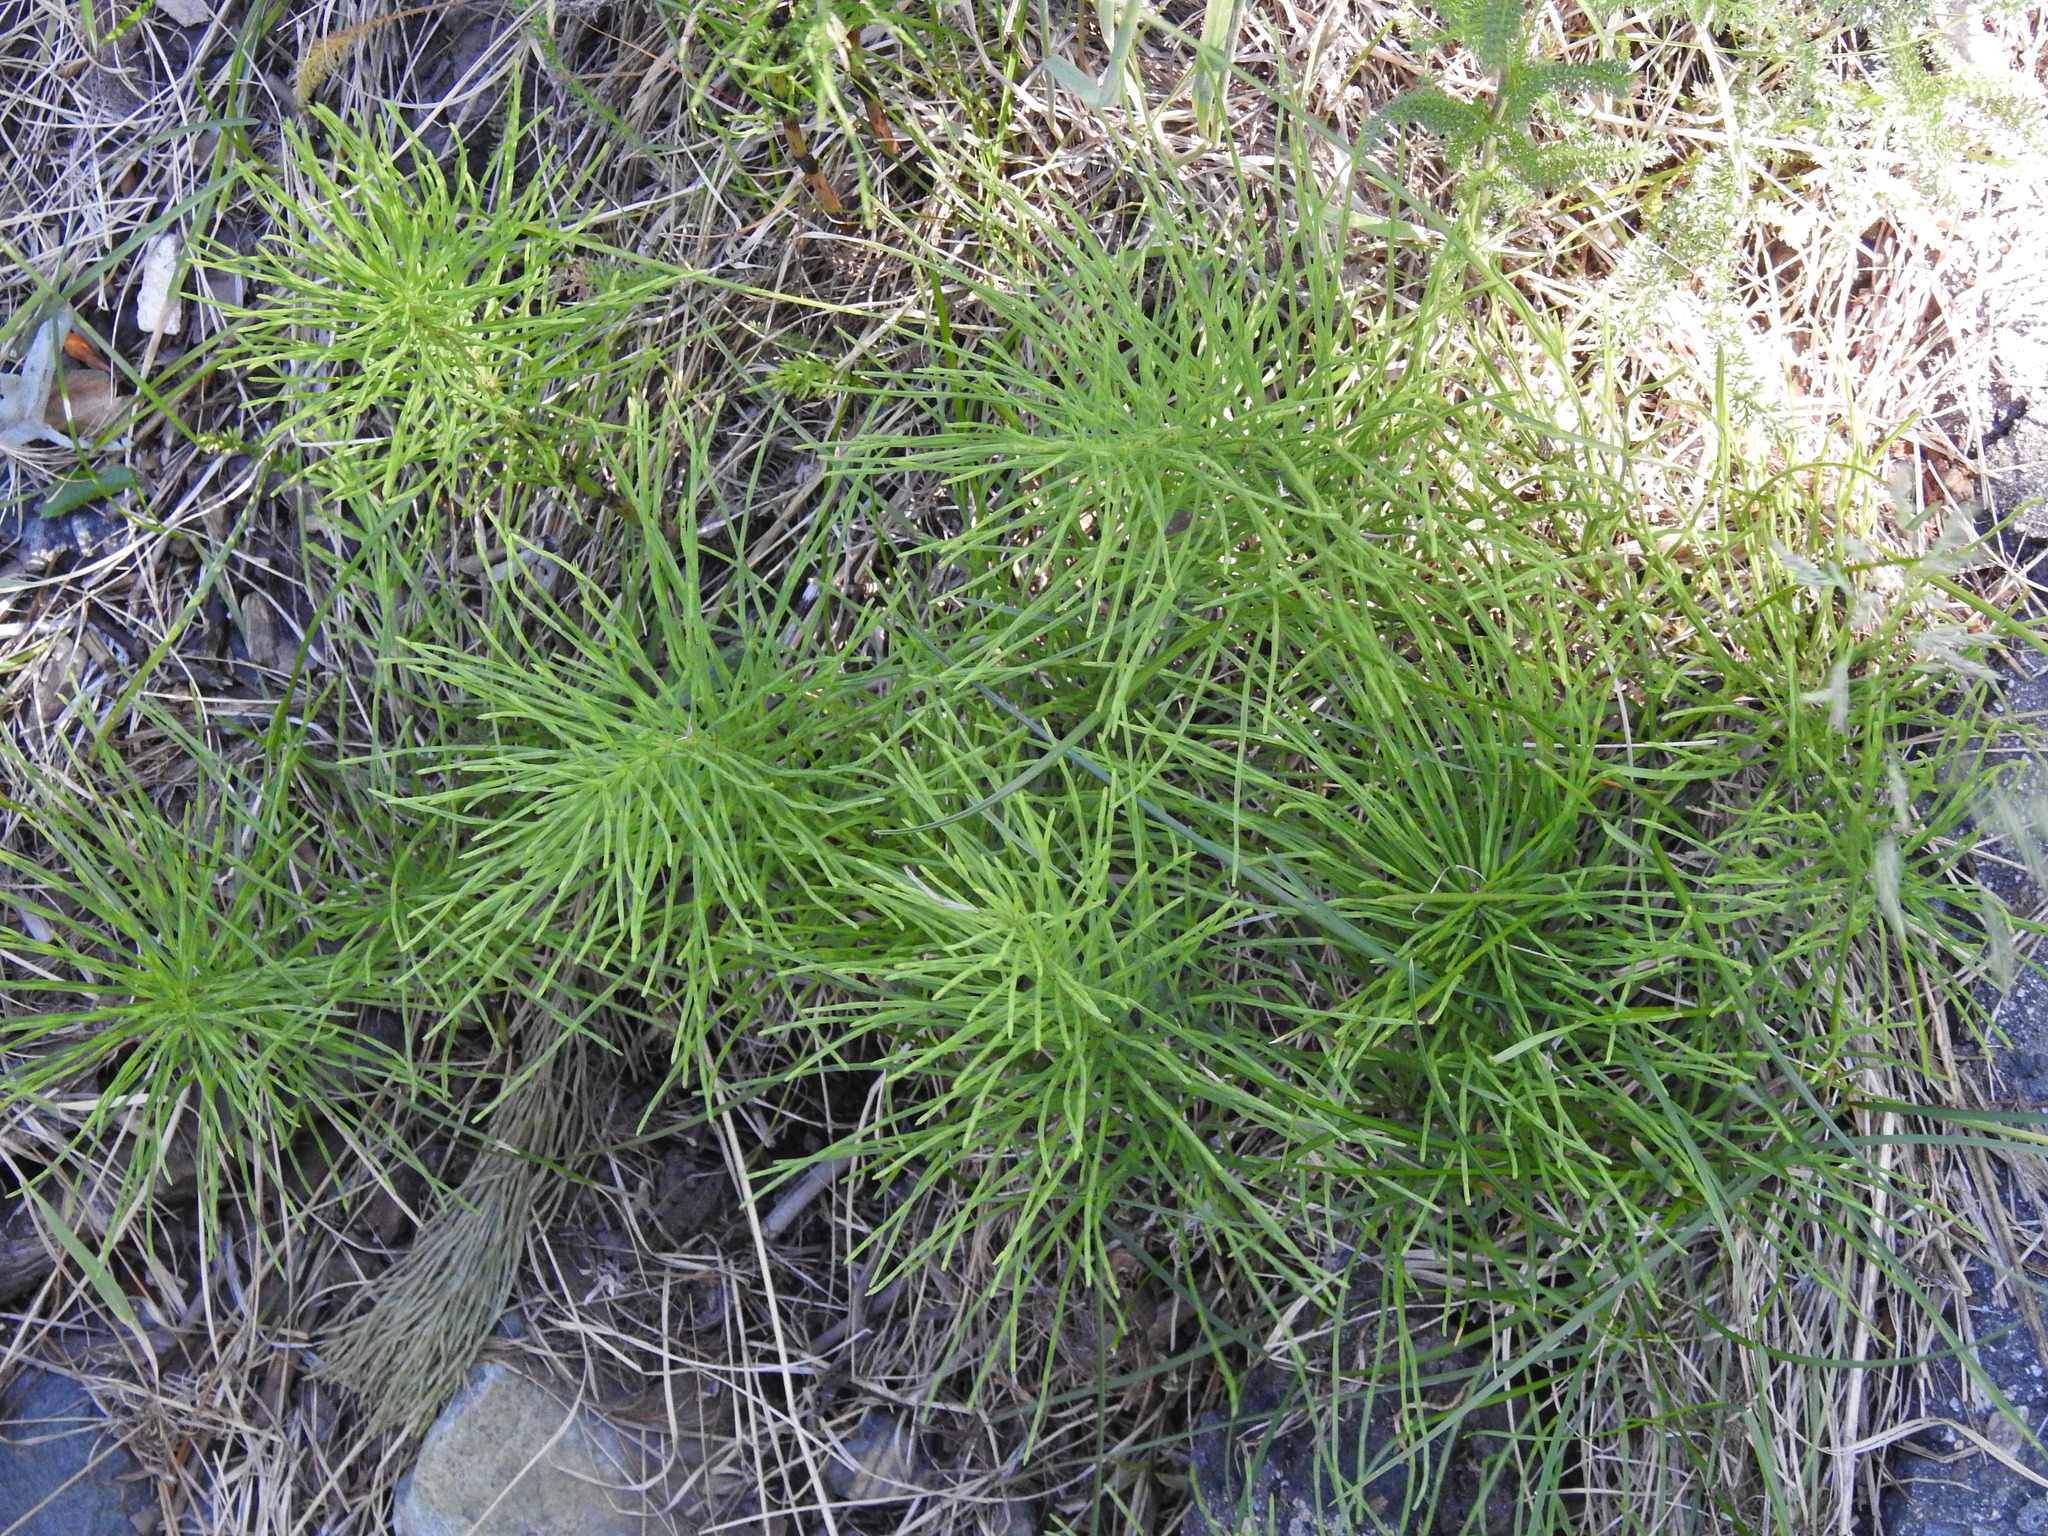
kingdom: Plantae
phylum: Tracheophyta
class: Polypodiopsida
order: Equisetales
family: Equisetaceae
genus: Equisetum
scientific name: Equisetum arvense
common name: Field horsetail
